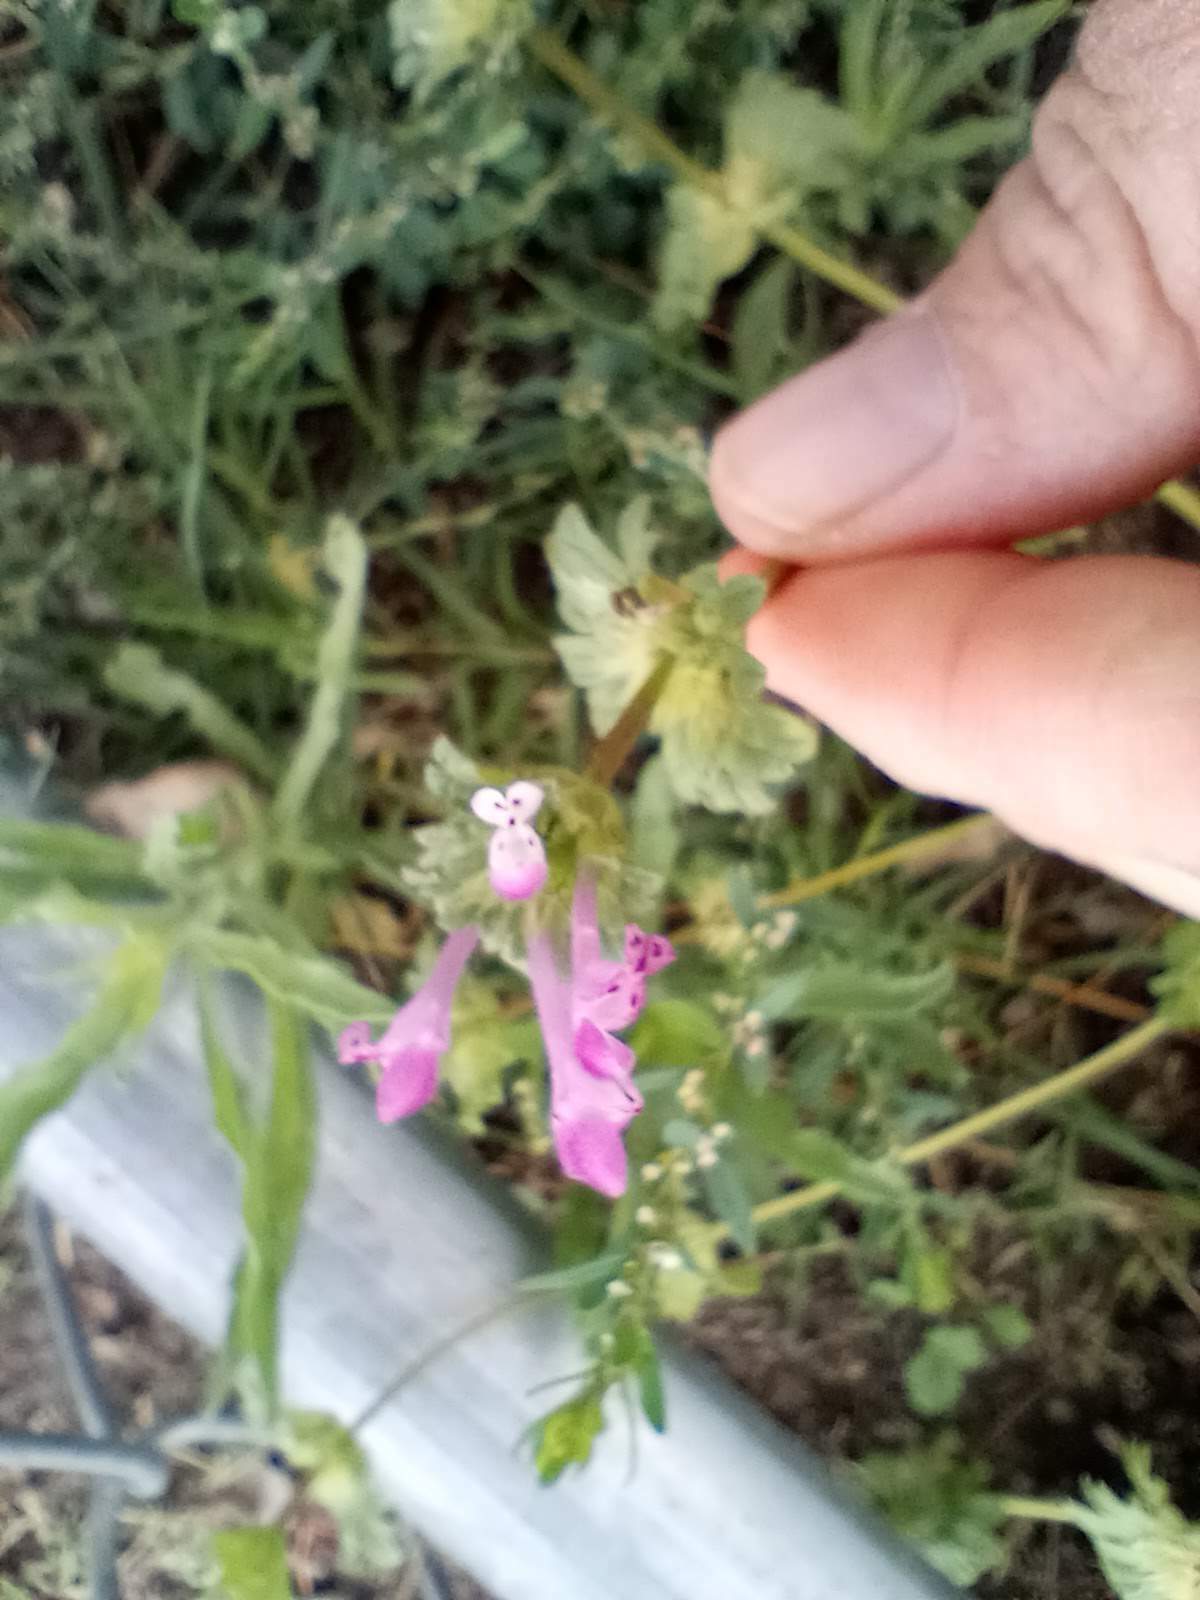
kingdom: Plantae
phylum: Tracheophyta
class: Magnoliopsida
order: Lamiales
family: Lamiaceae
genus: Lamium
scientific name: Lamium amplexicaule
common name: Henbit dead-nettle
